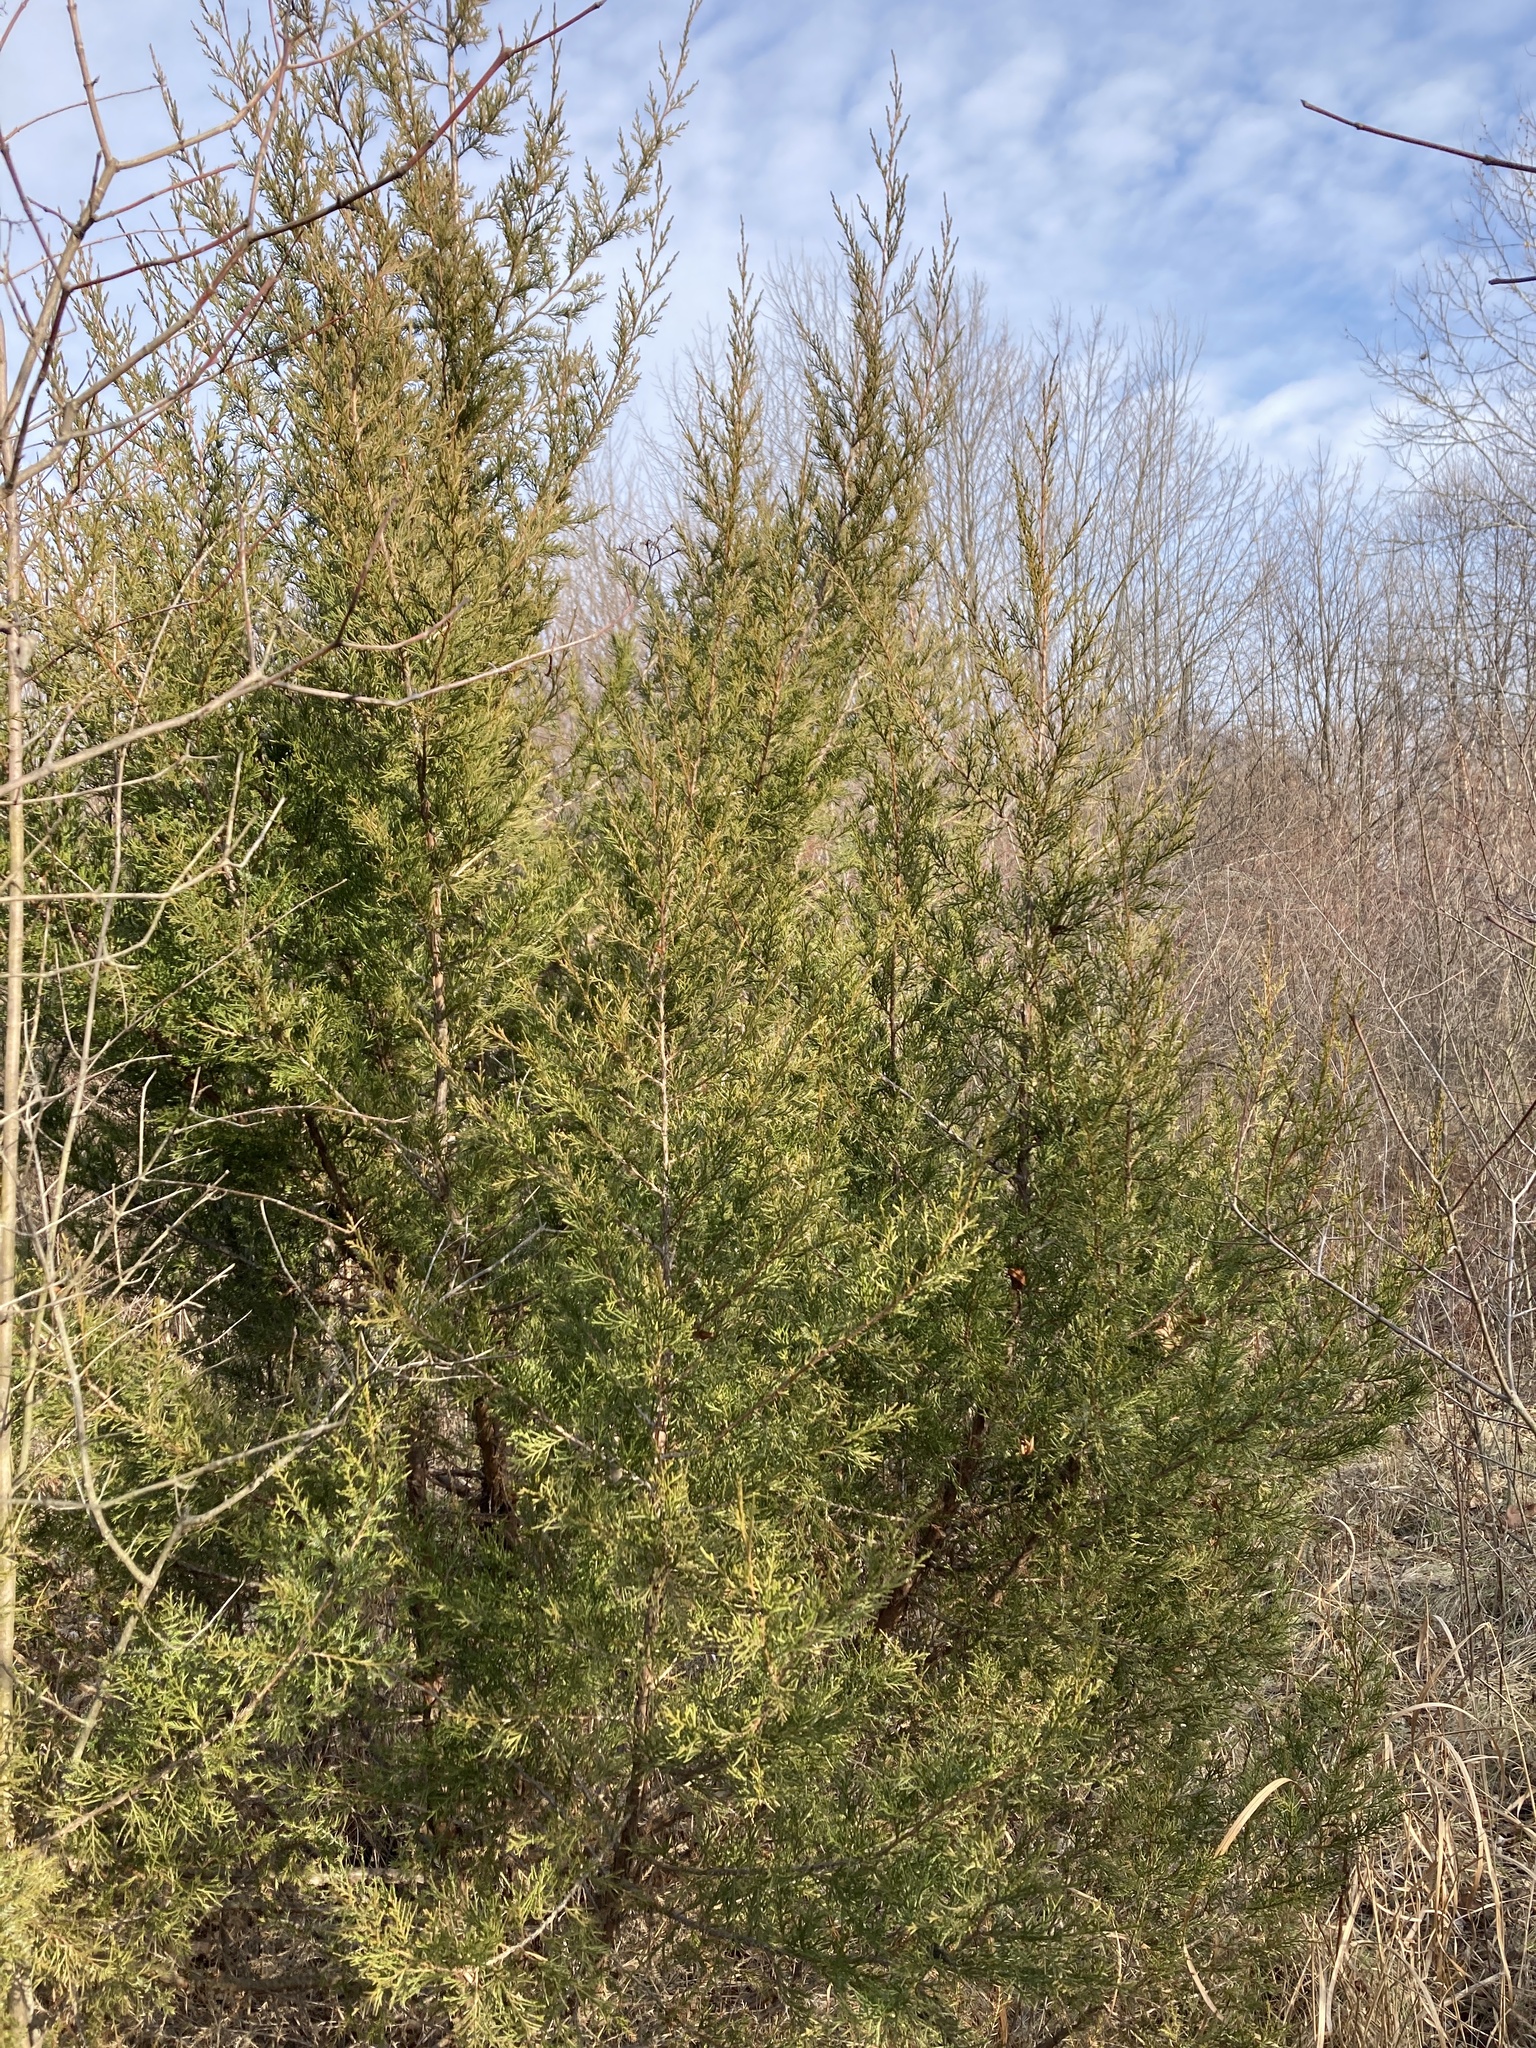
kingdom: Plantae
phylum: Tracheophyta
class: Pinopsida
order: Pinales
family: Cupressaceae
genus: Juniperus
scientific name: Juniperus virginiana
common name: Red juniper
